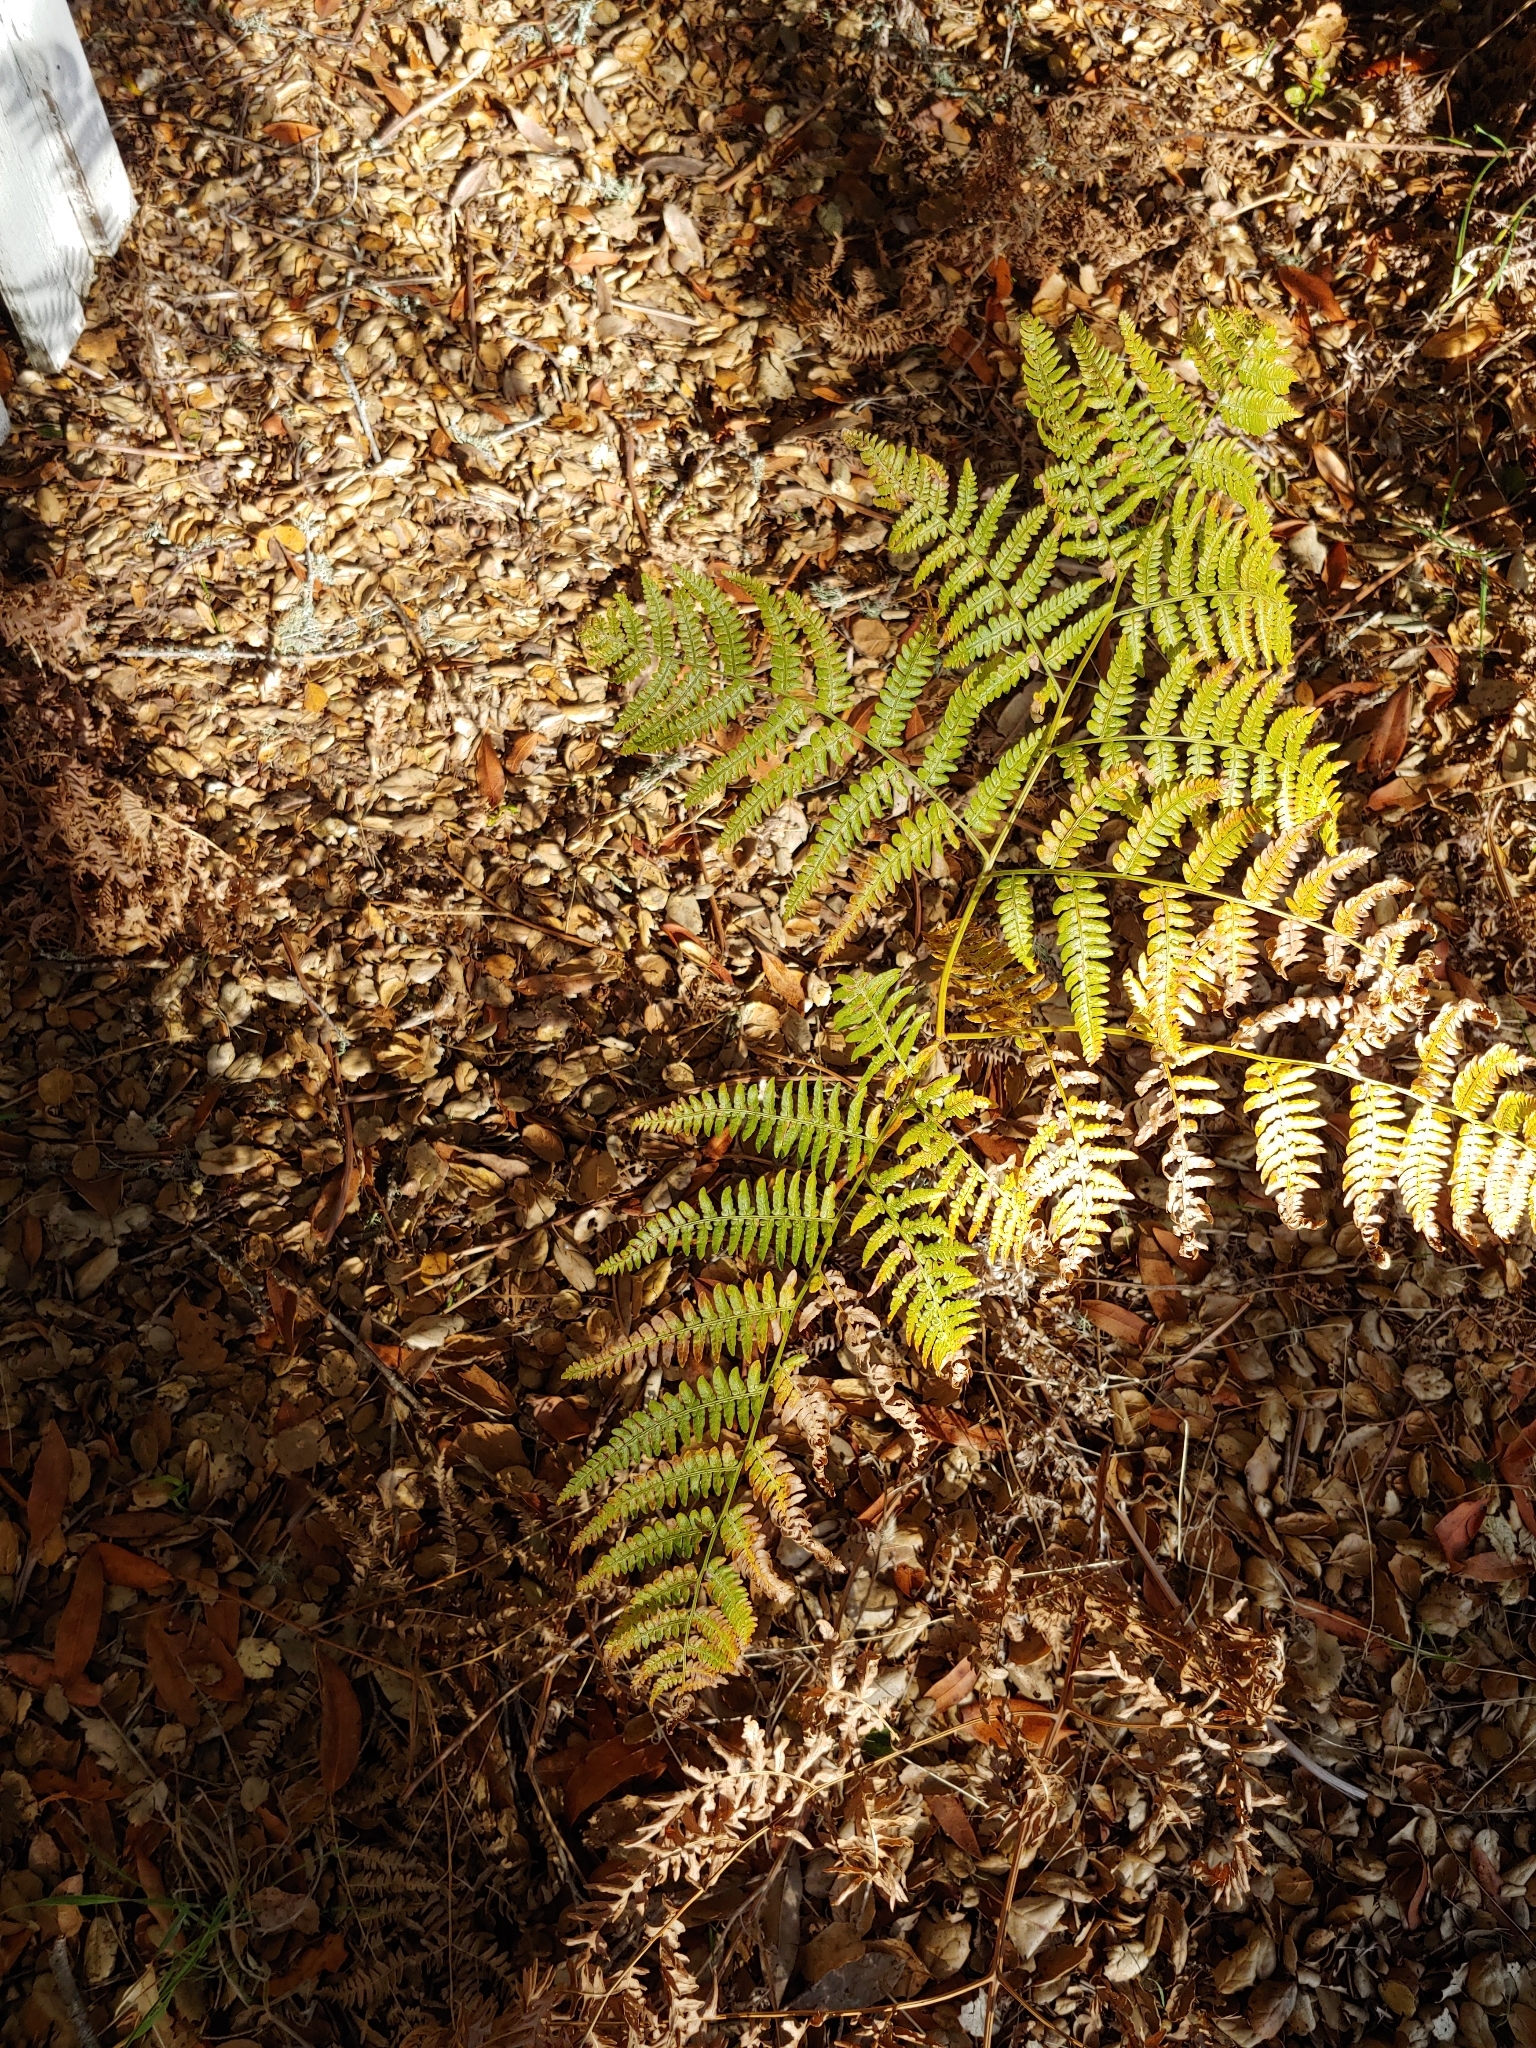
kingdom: Plantae
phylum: Tracheophyta
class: Polypodiopsida
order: Polypodiales
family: Dennstaedtiaceae
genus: Pteridium
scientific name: Pteridium aquilinum
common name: Bracken
